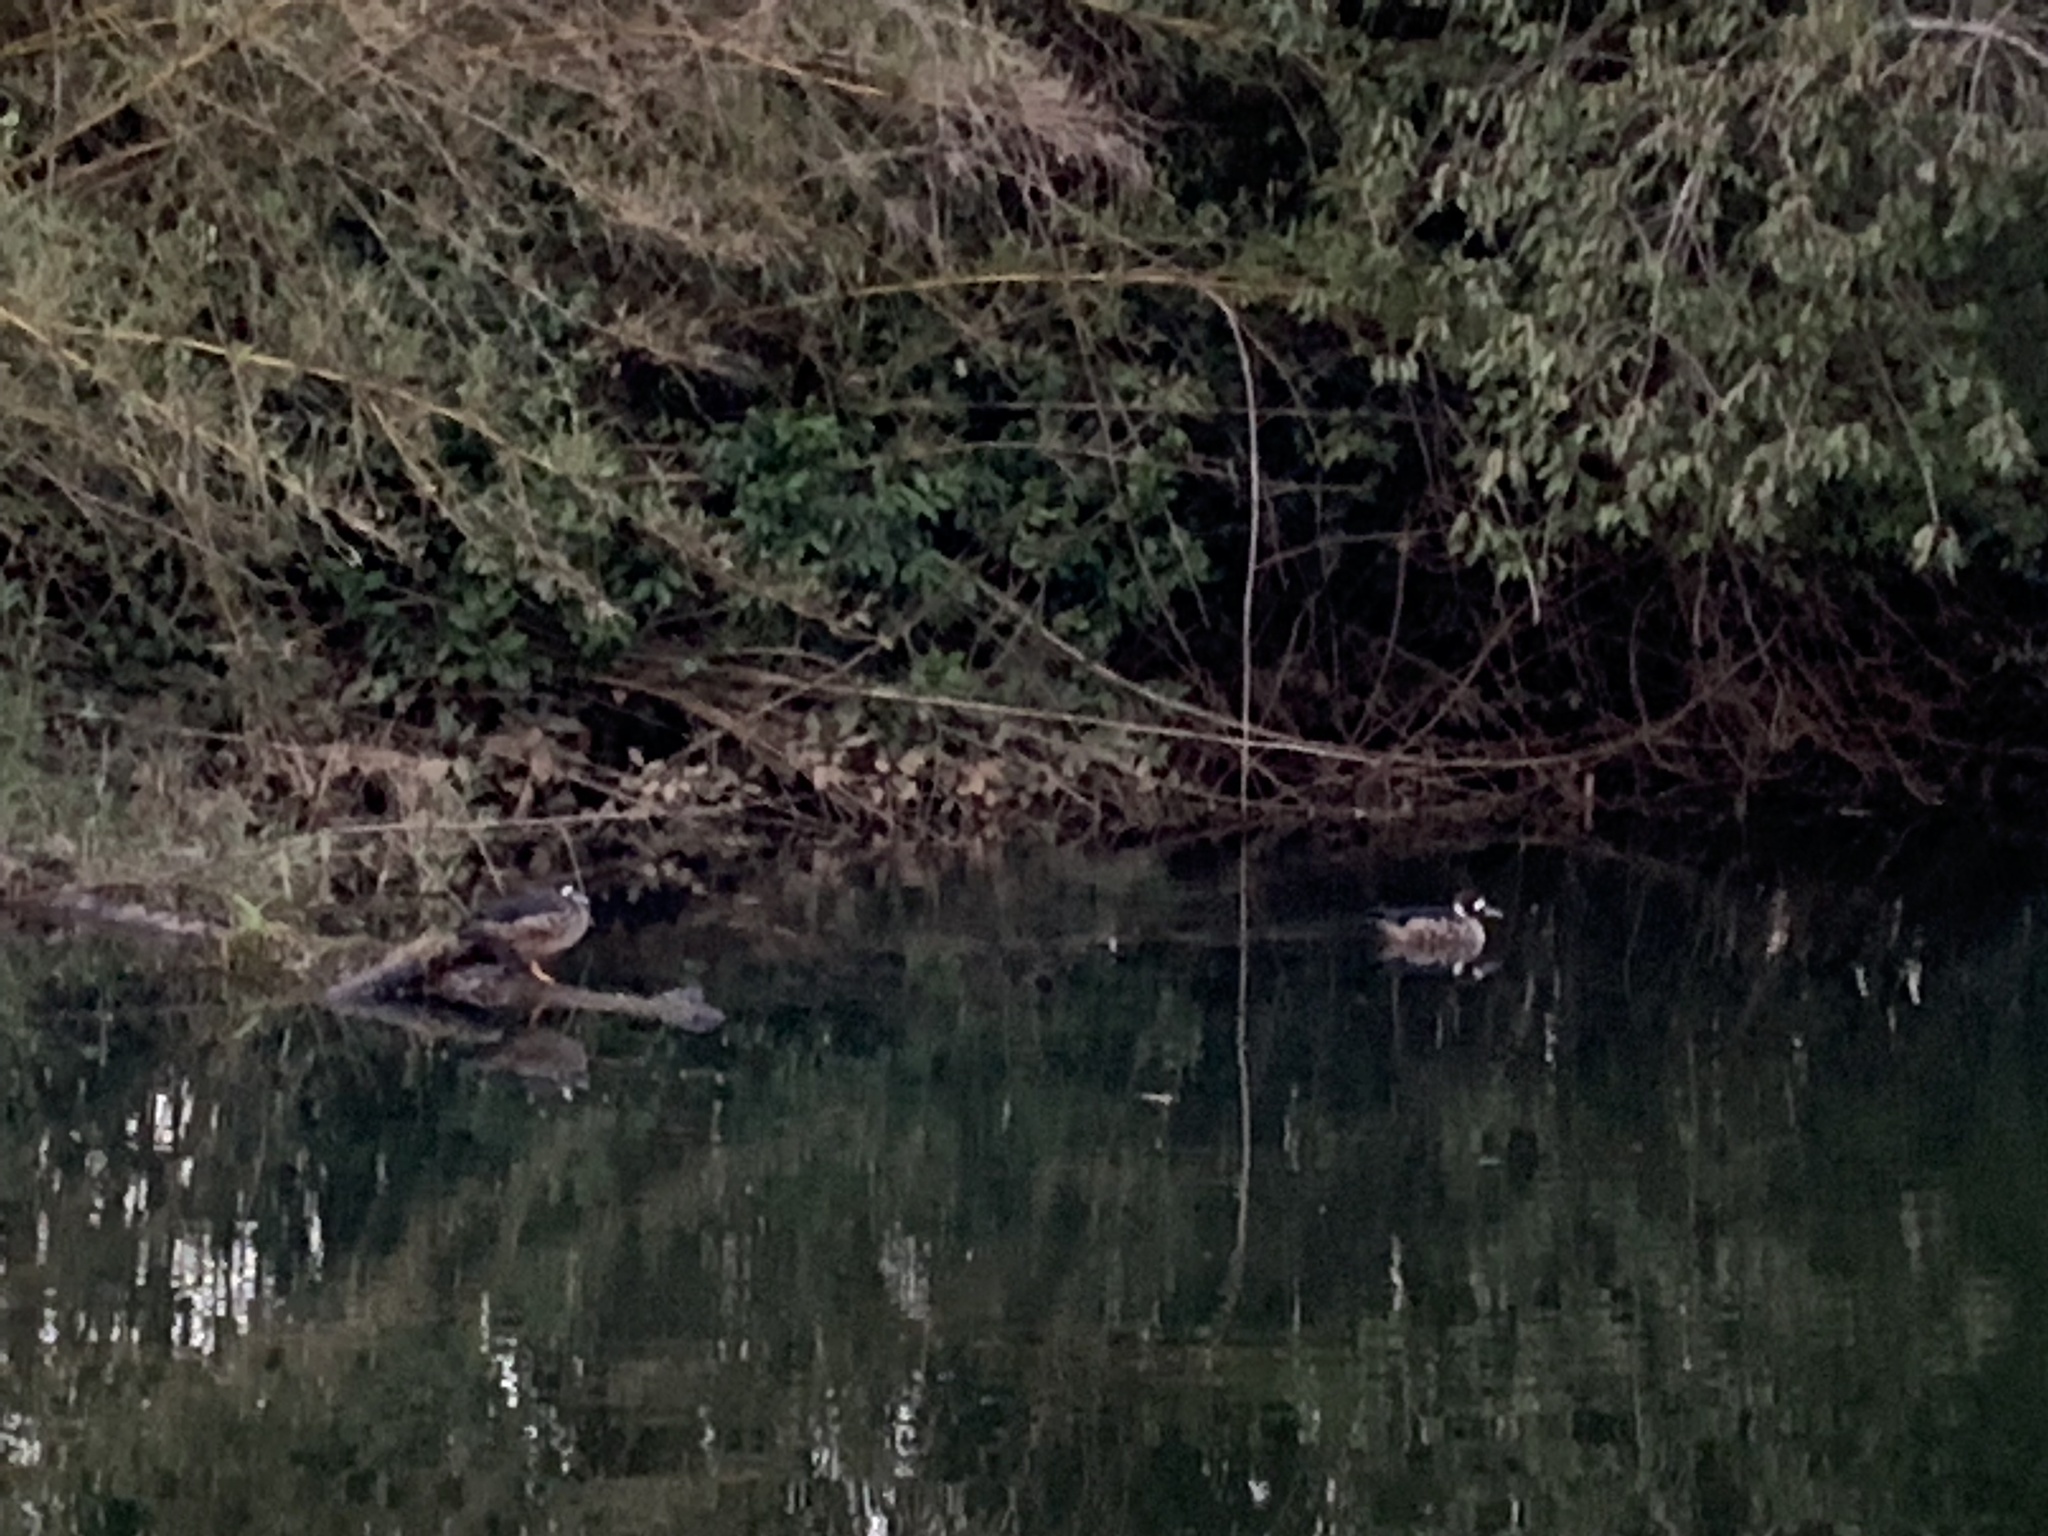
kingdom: Animalia
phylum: Chordata
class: Aves
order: Anseriformes
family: Anatidae
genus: Speculanas
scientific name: Speculanas specularis
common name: Bronze-winged duck
